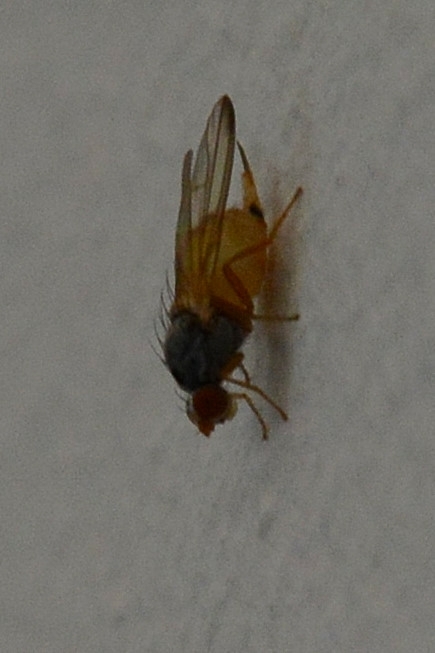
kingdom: Animalia
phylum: Arthropoda
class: Insecta
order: Diptera
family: Pallopteridae
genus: Palloptera
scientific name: Palloptera
